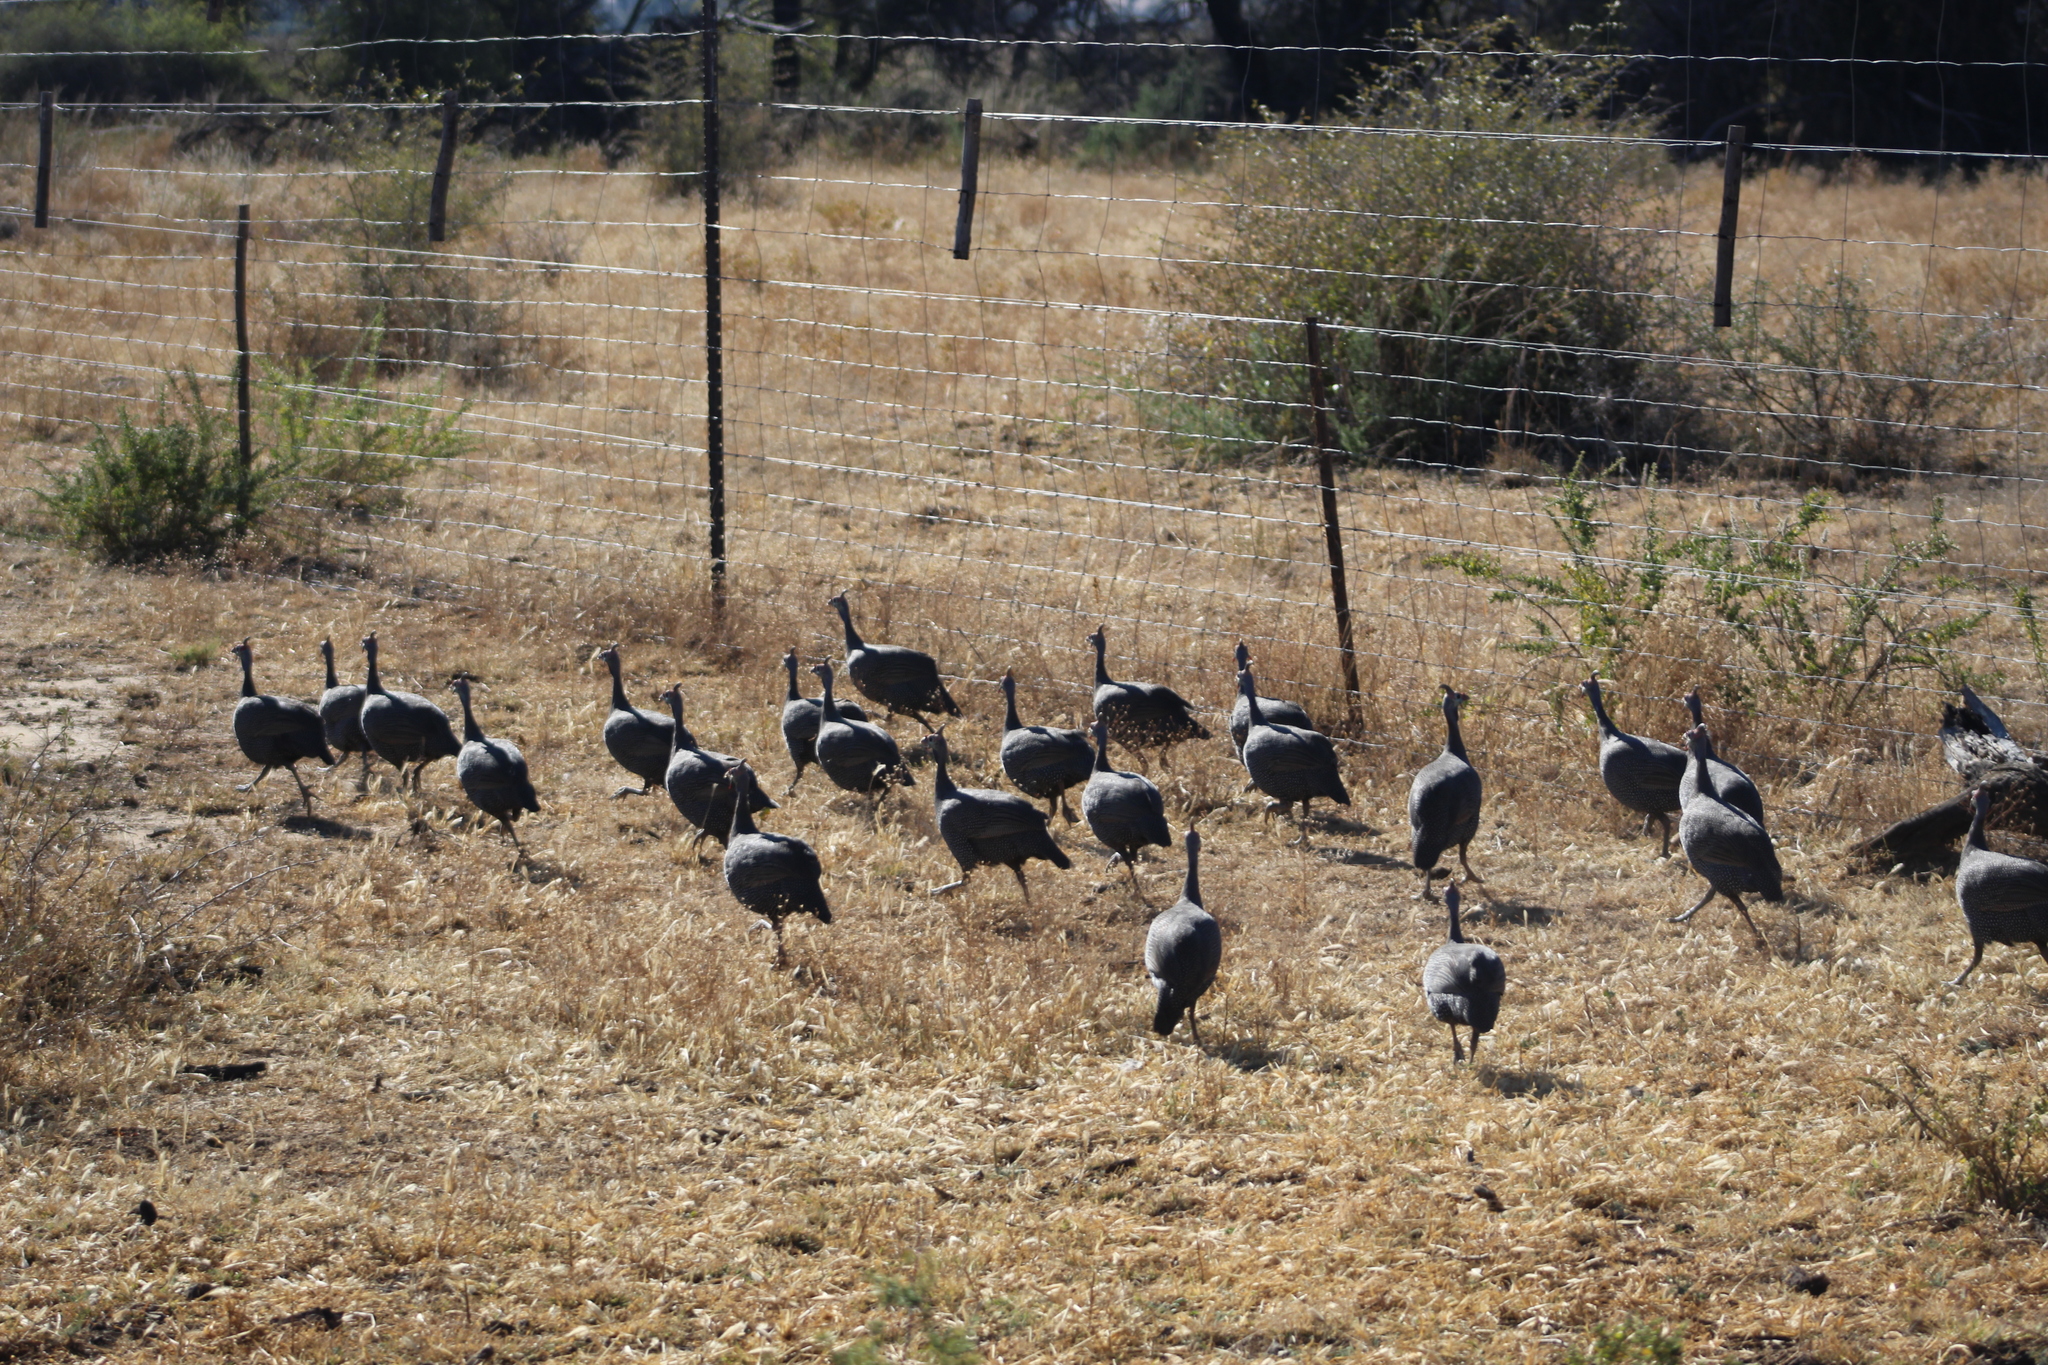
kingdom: Animalia
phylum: Chordata
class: Aves
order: Galliformes
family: Numididae
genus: Numida
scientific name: Numida meleagris
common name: Helmeted guineafowl
